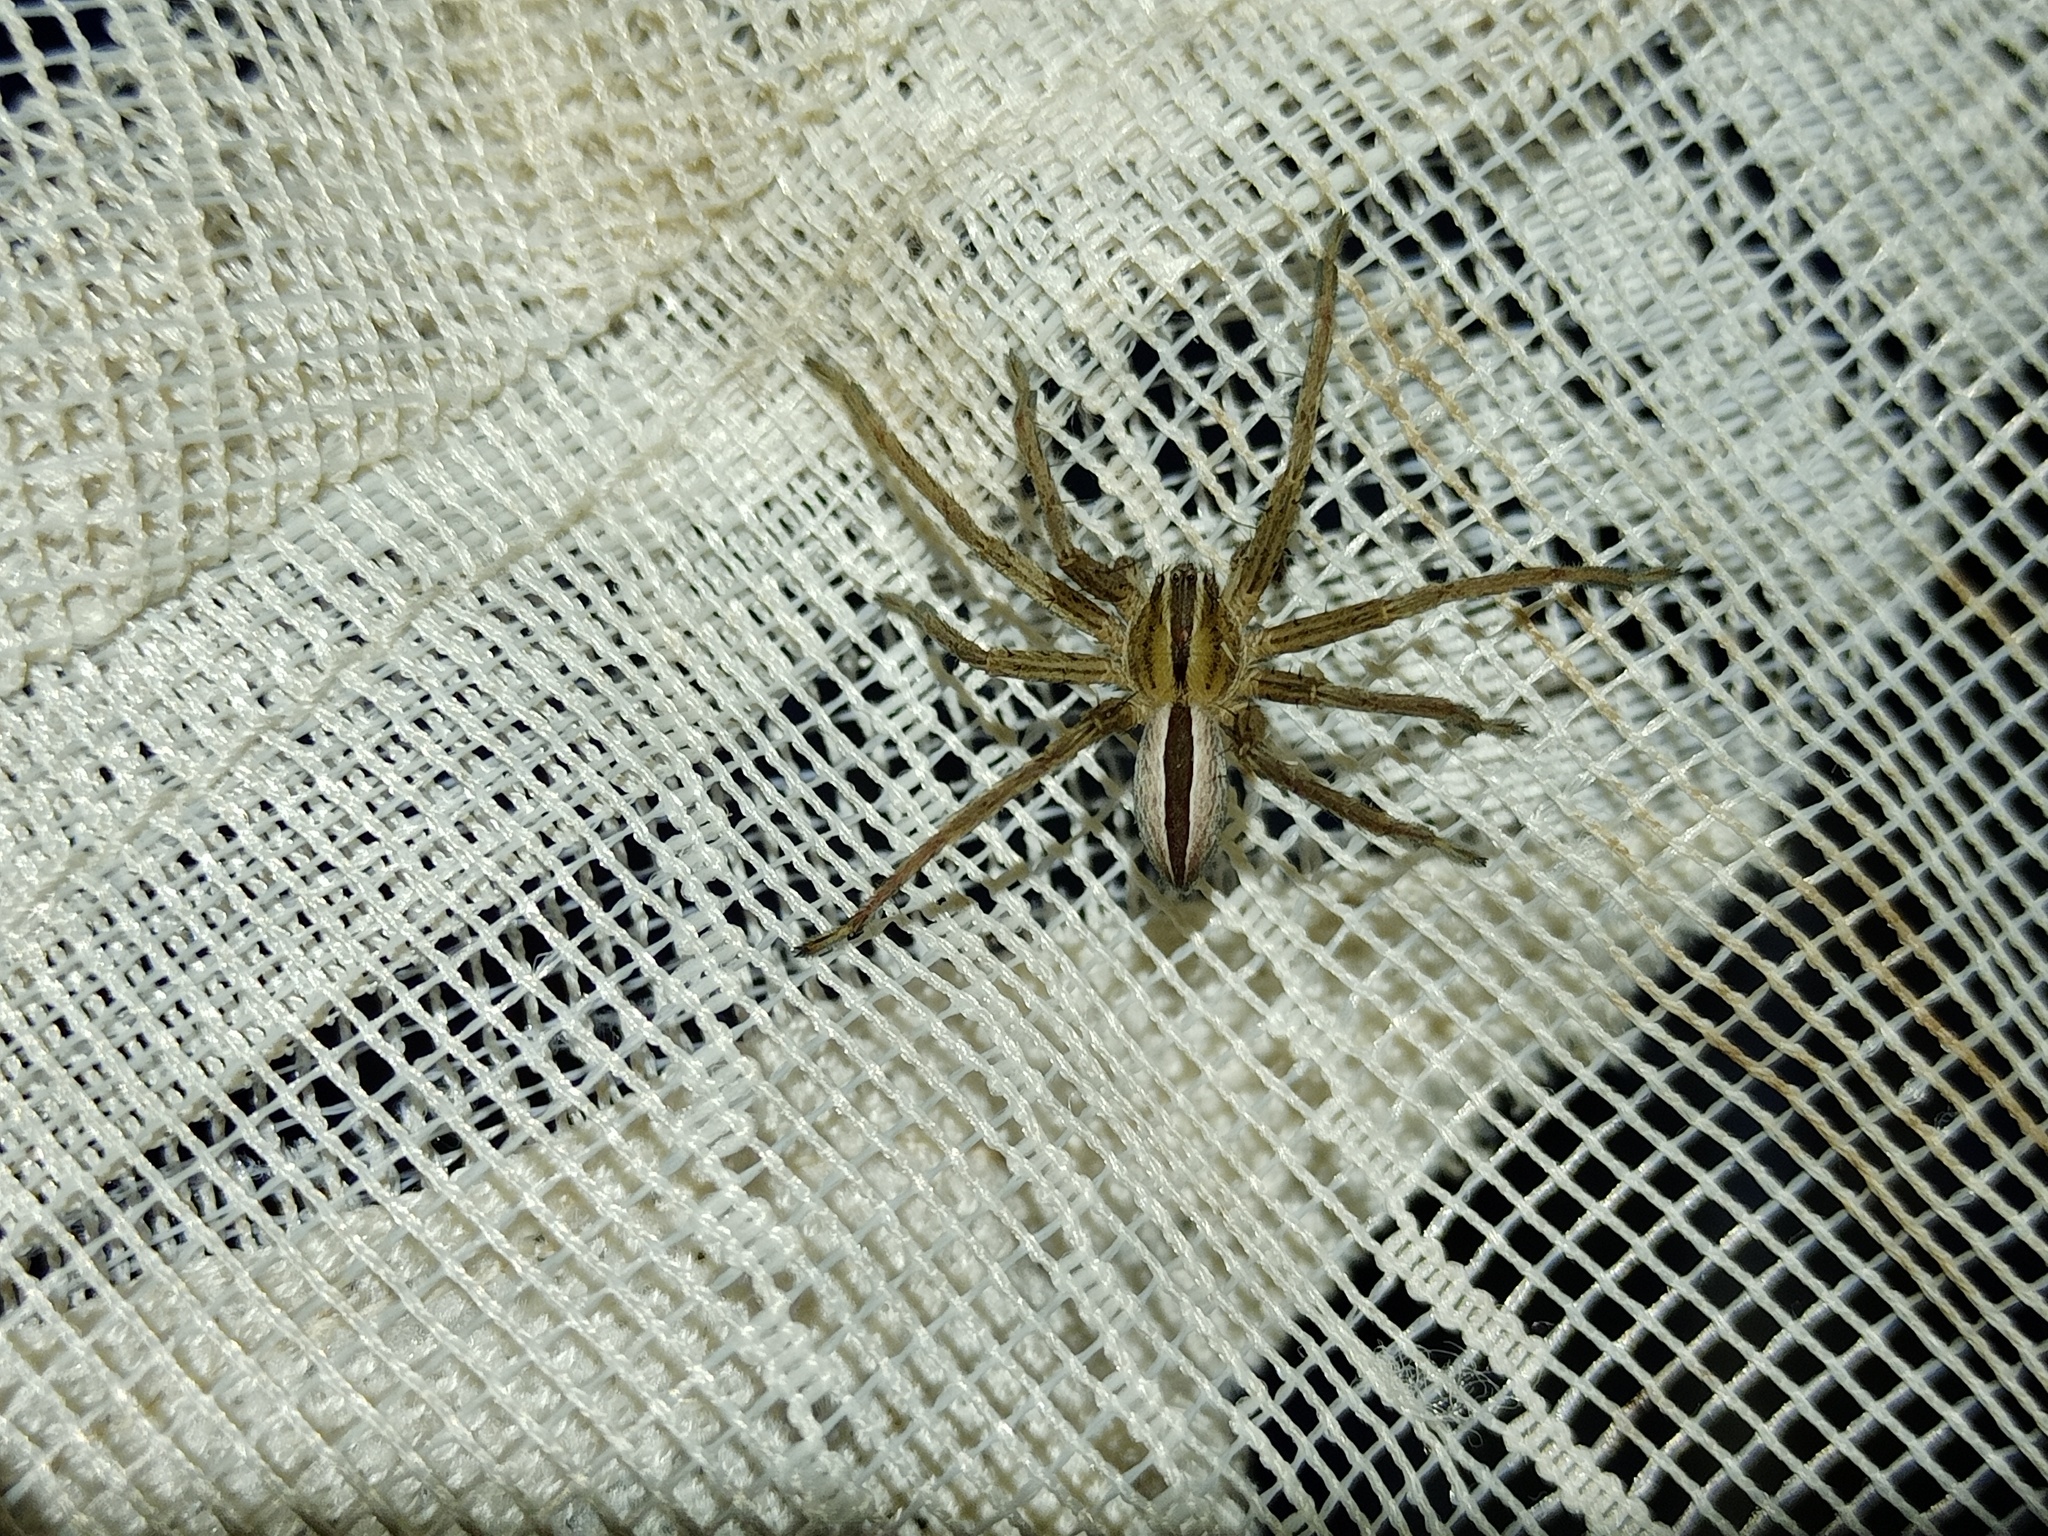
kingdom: Animalia
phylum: Arthropoda
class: Arachnida
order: Araneae
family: Sparassidae
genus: Micrommata
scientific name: Micrommata ligurina
